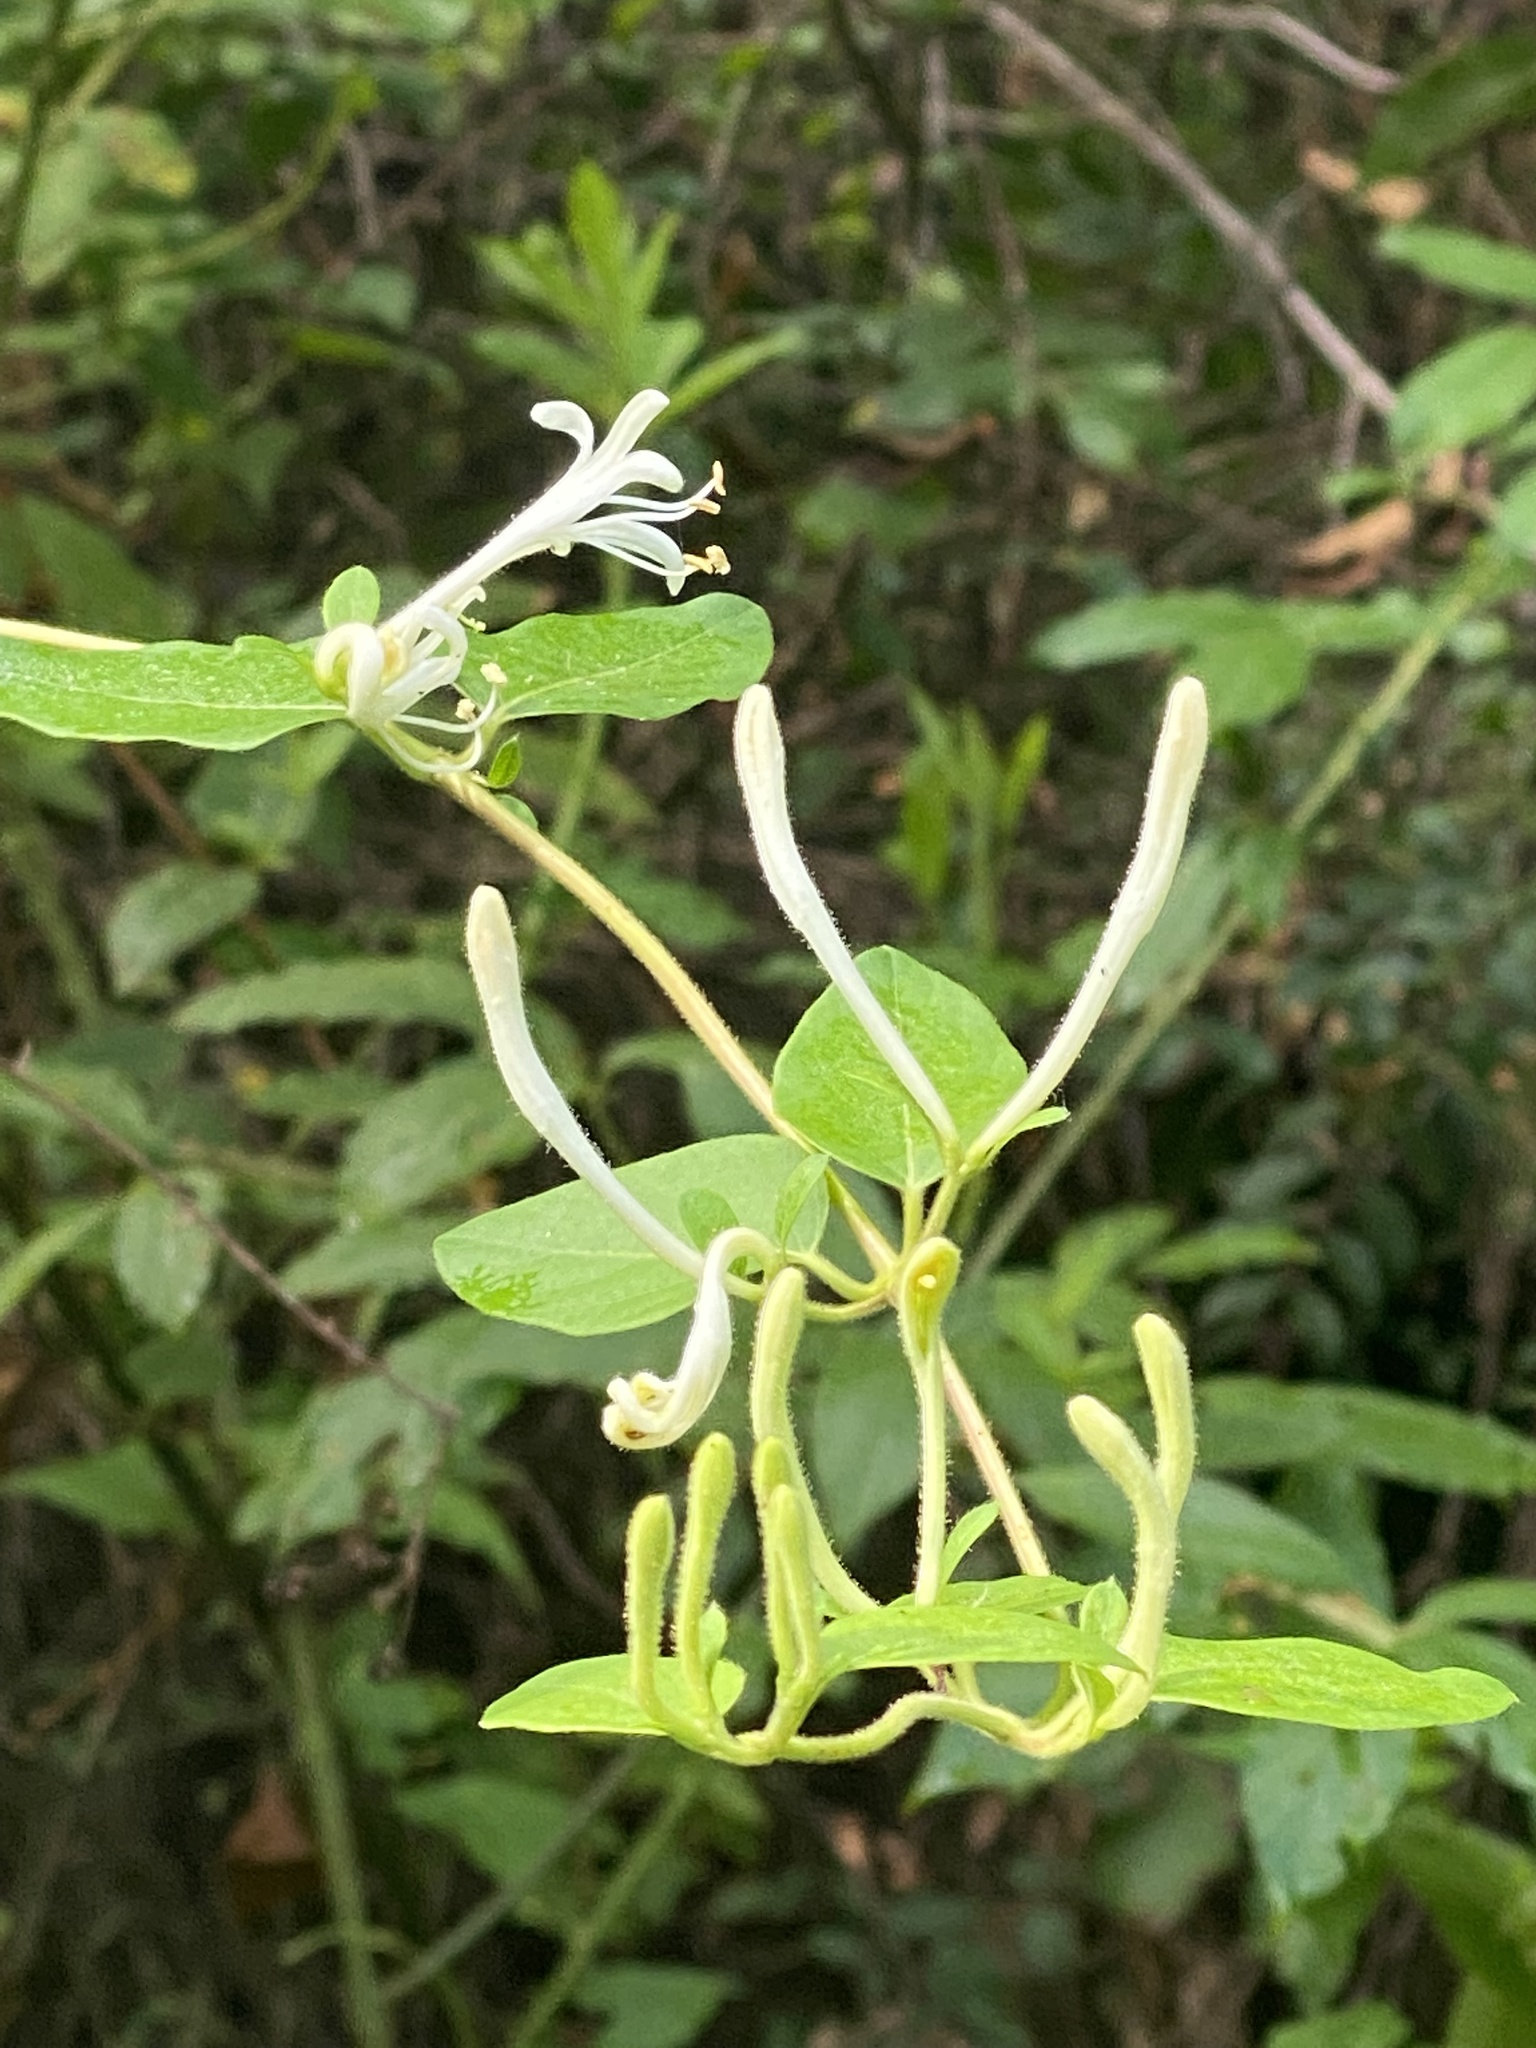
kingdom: Plantae
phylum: Tracheophyta
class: Magnoliopsida
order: Dipsacales
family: Caprifoliaceae
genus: Lonicera
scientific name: Lonicera japonica
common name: Japanese honeysuckle
